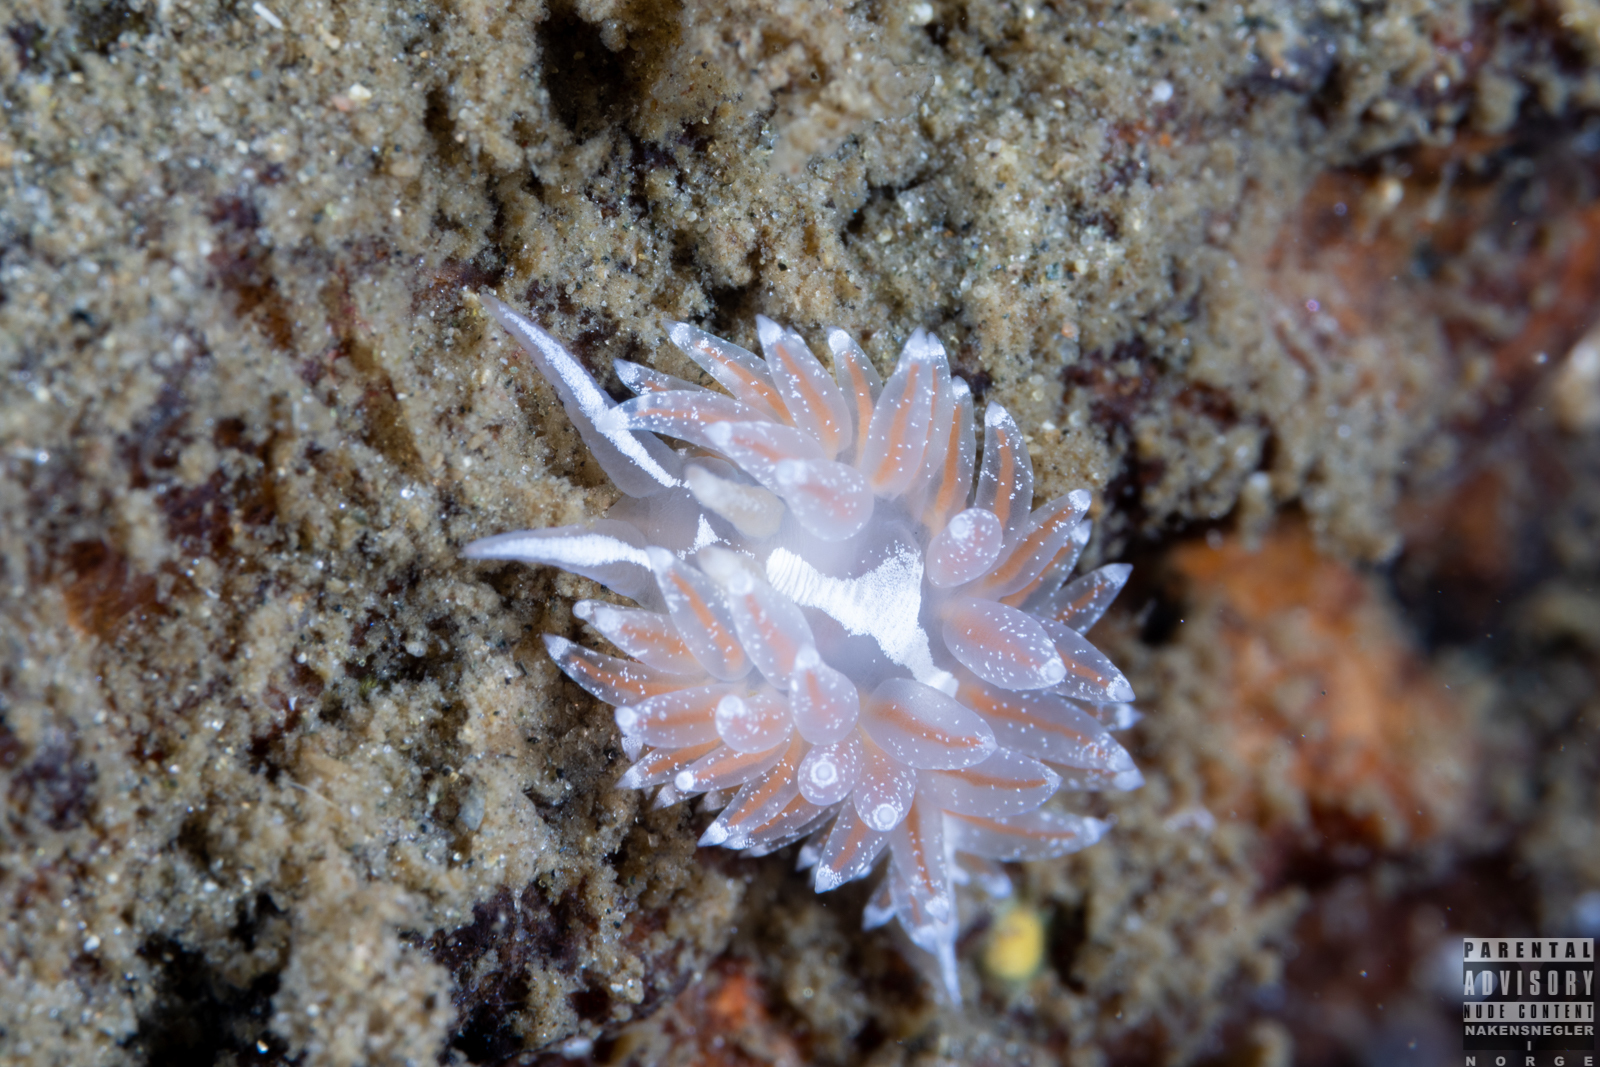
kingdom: Animalia
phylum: Mollusca
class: Gastropoda
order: Nudibranchia
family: Coryphellidae
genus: Coryphella
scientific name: Coryphella monicae
